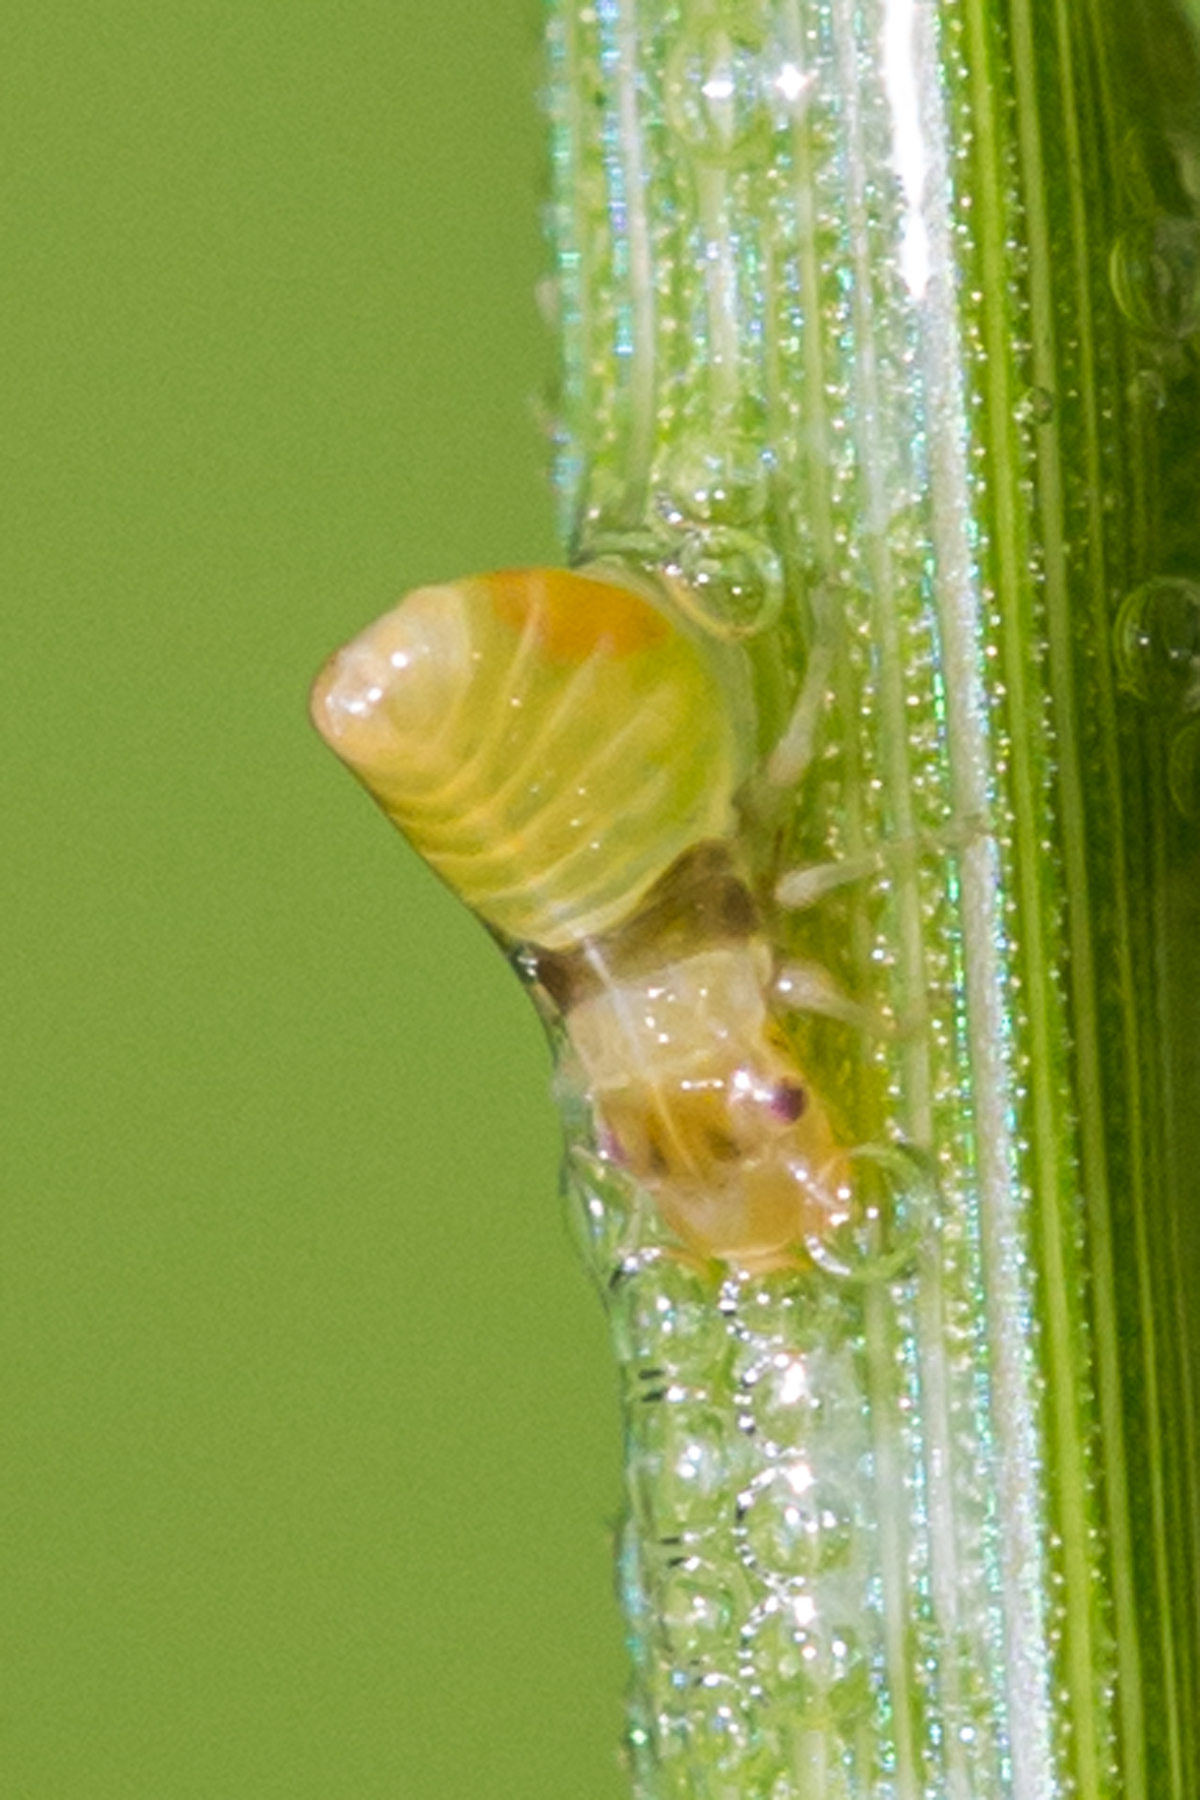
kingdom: Animalia
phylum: Arthropoda
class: Insecta
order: Hemiptera
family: Aphrophoridae
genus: Lepyronia
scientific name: Lepyronia quadrangularis
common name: Diamond-backed spittlebug
